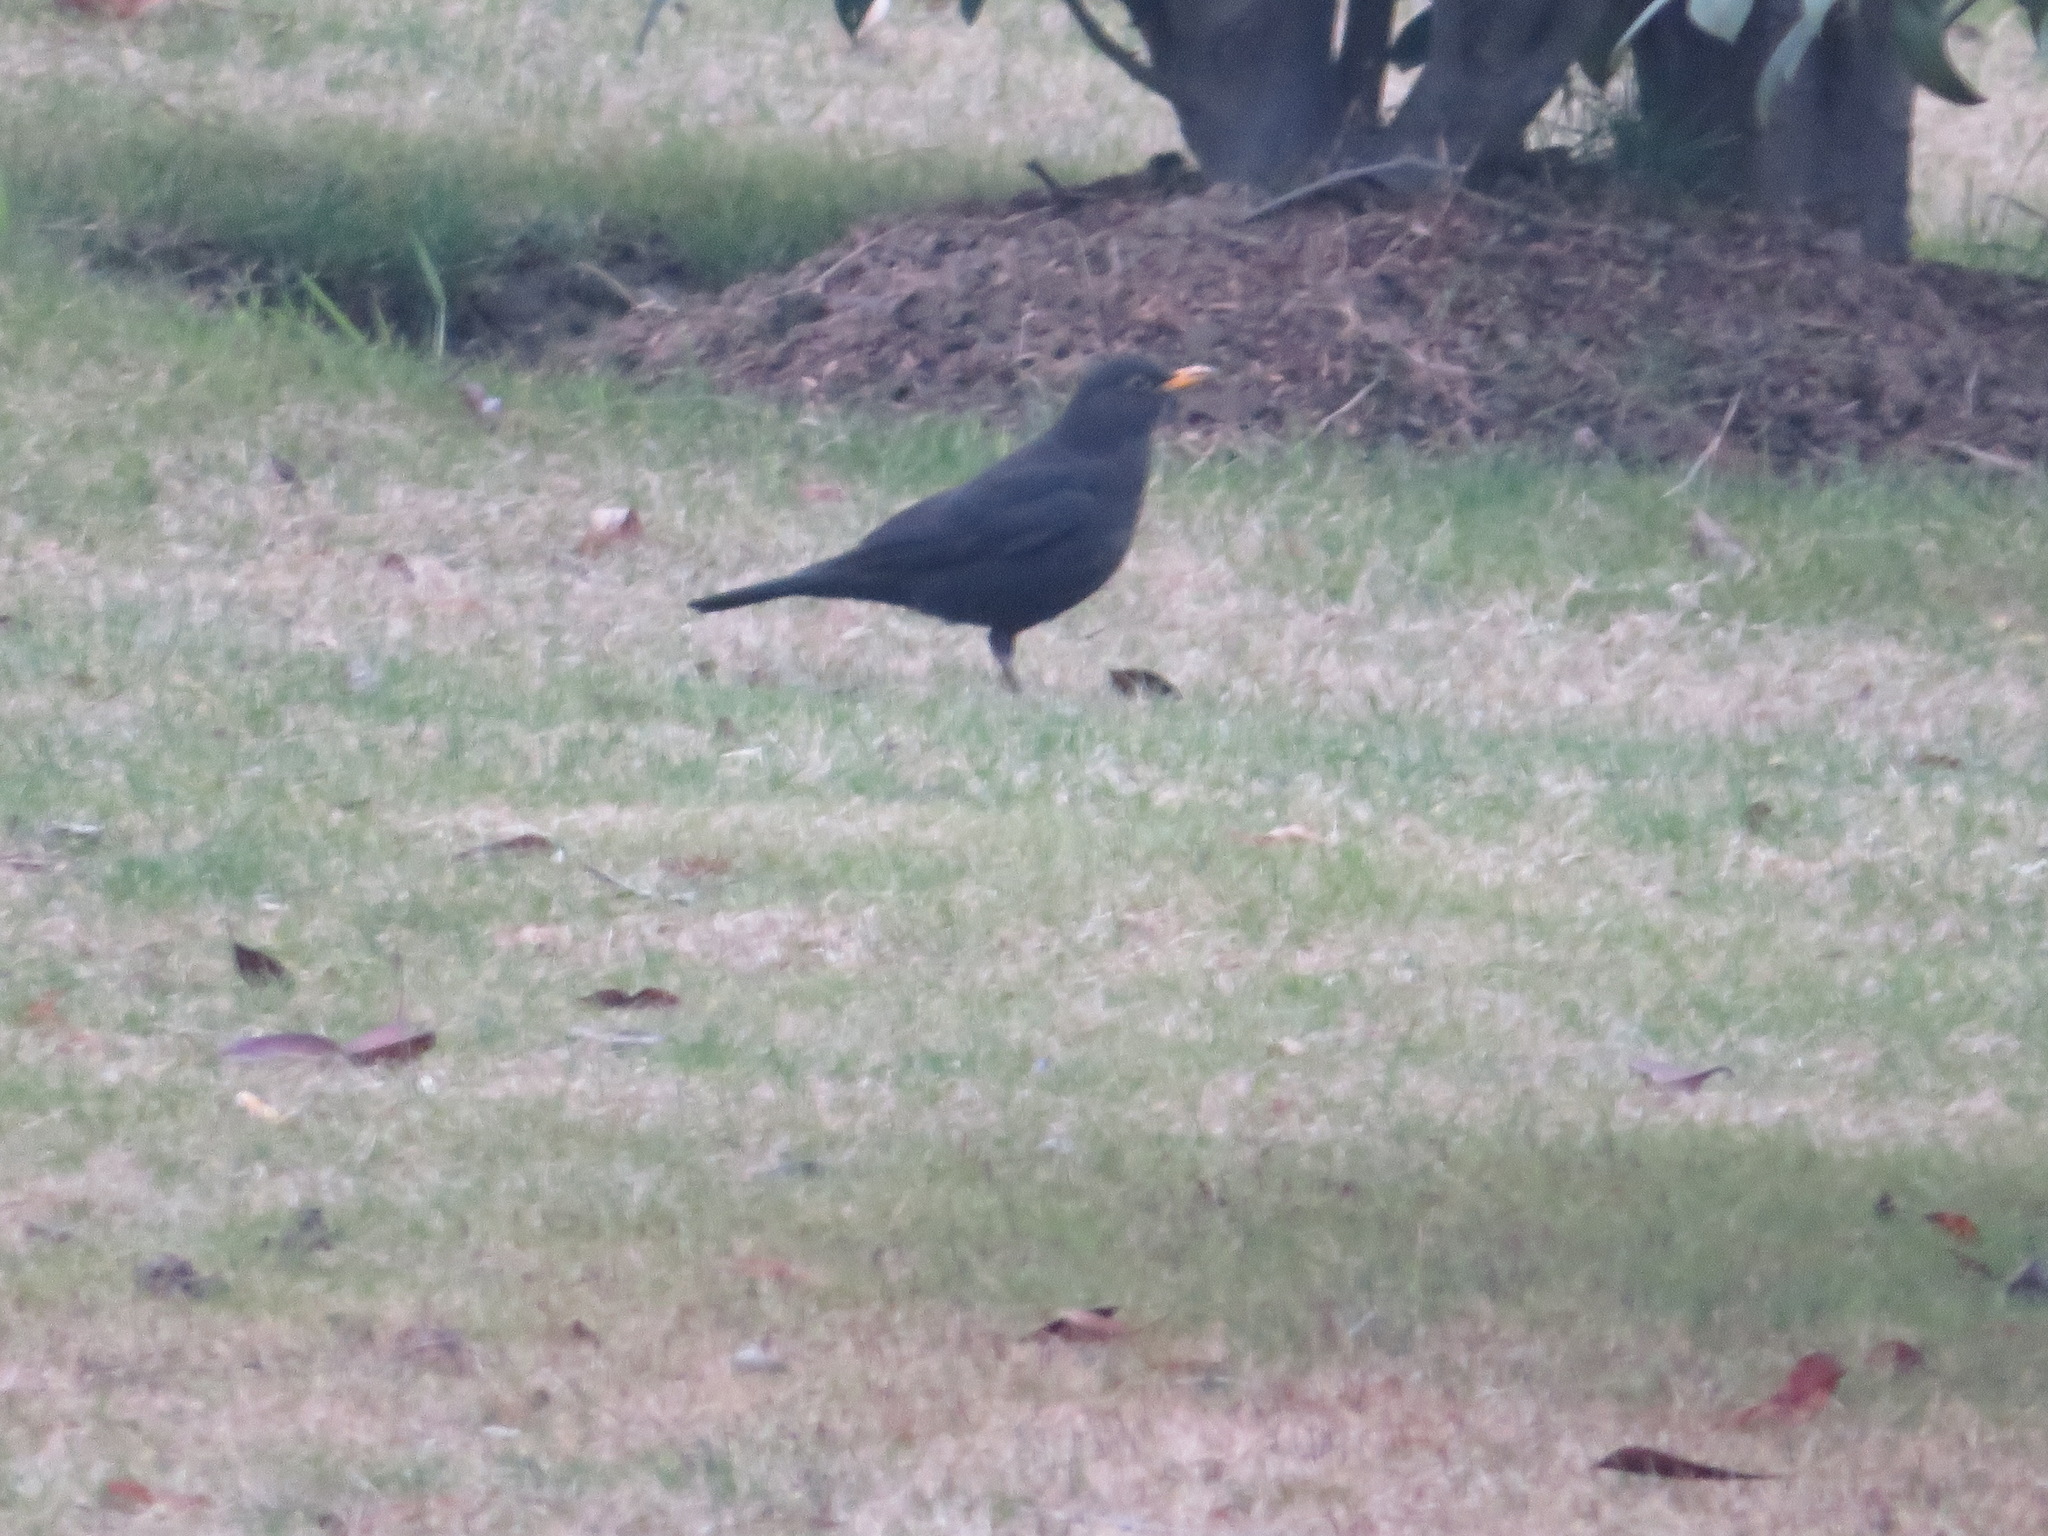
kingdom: Animalia
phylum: Chordata
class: Aves
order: Passeriformes
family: Turdidae
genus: Turdus
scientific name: Turdus mandarinus
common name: Chinese blackbird
